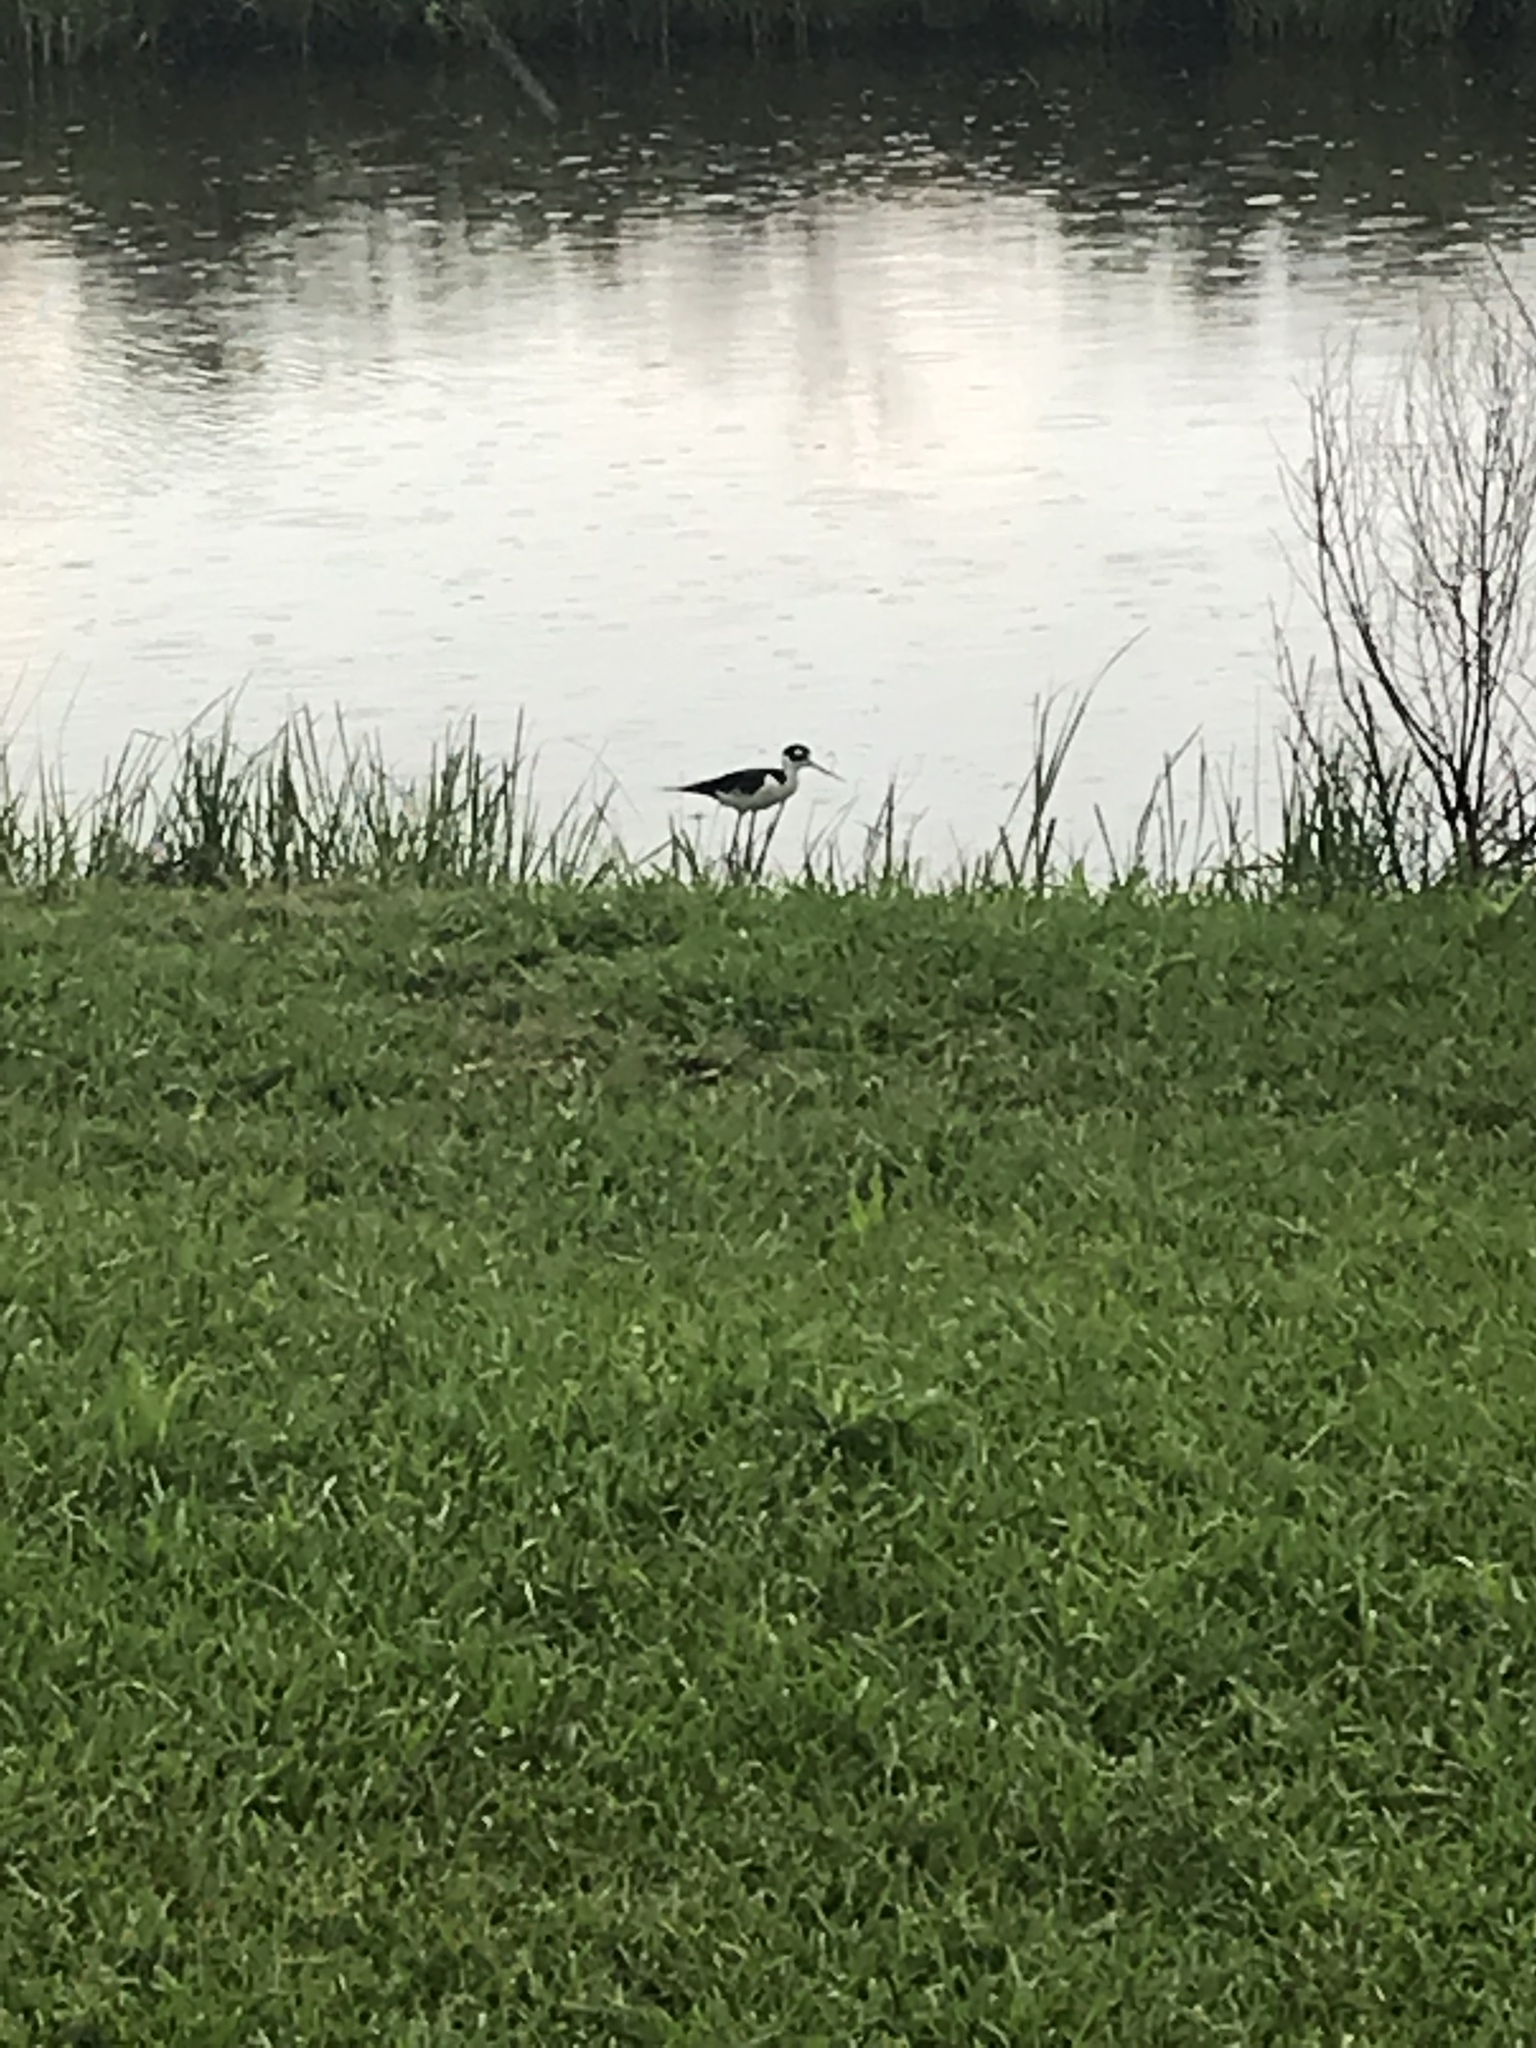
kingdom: Animalia
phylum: Chordata
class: Aves
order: Charadriiformes
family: Recurvirostridae
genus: Himantopus
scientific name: Himantopus mexicanus
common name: Black-necked stilt
